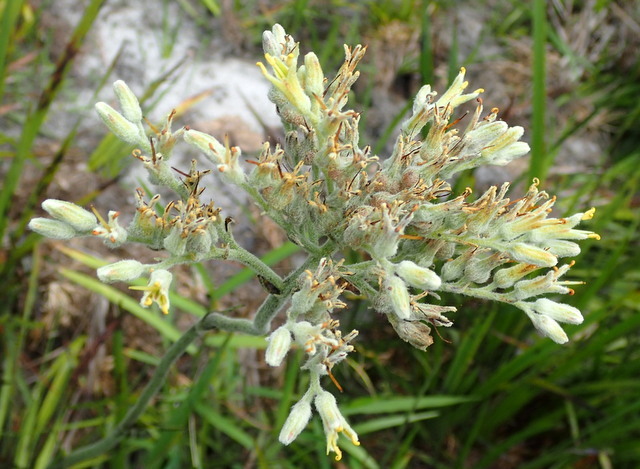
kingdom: Plantae
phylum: Tracheophyta
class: Liliopsida
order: Commelinales
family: Haemodoraceae
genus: Lachnanthes
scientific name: Lachnanthes caroliana
